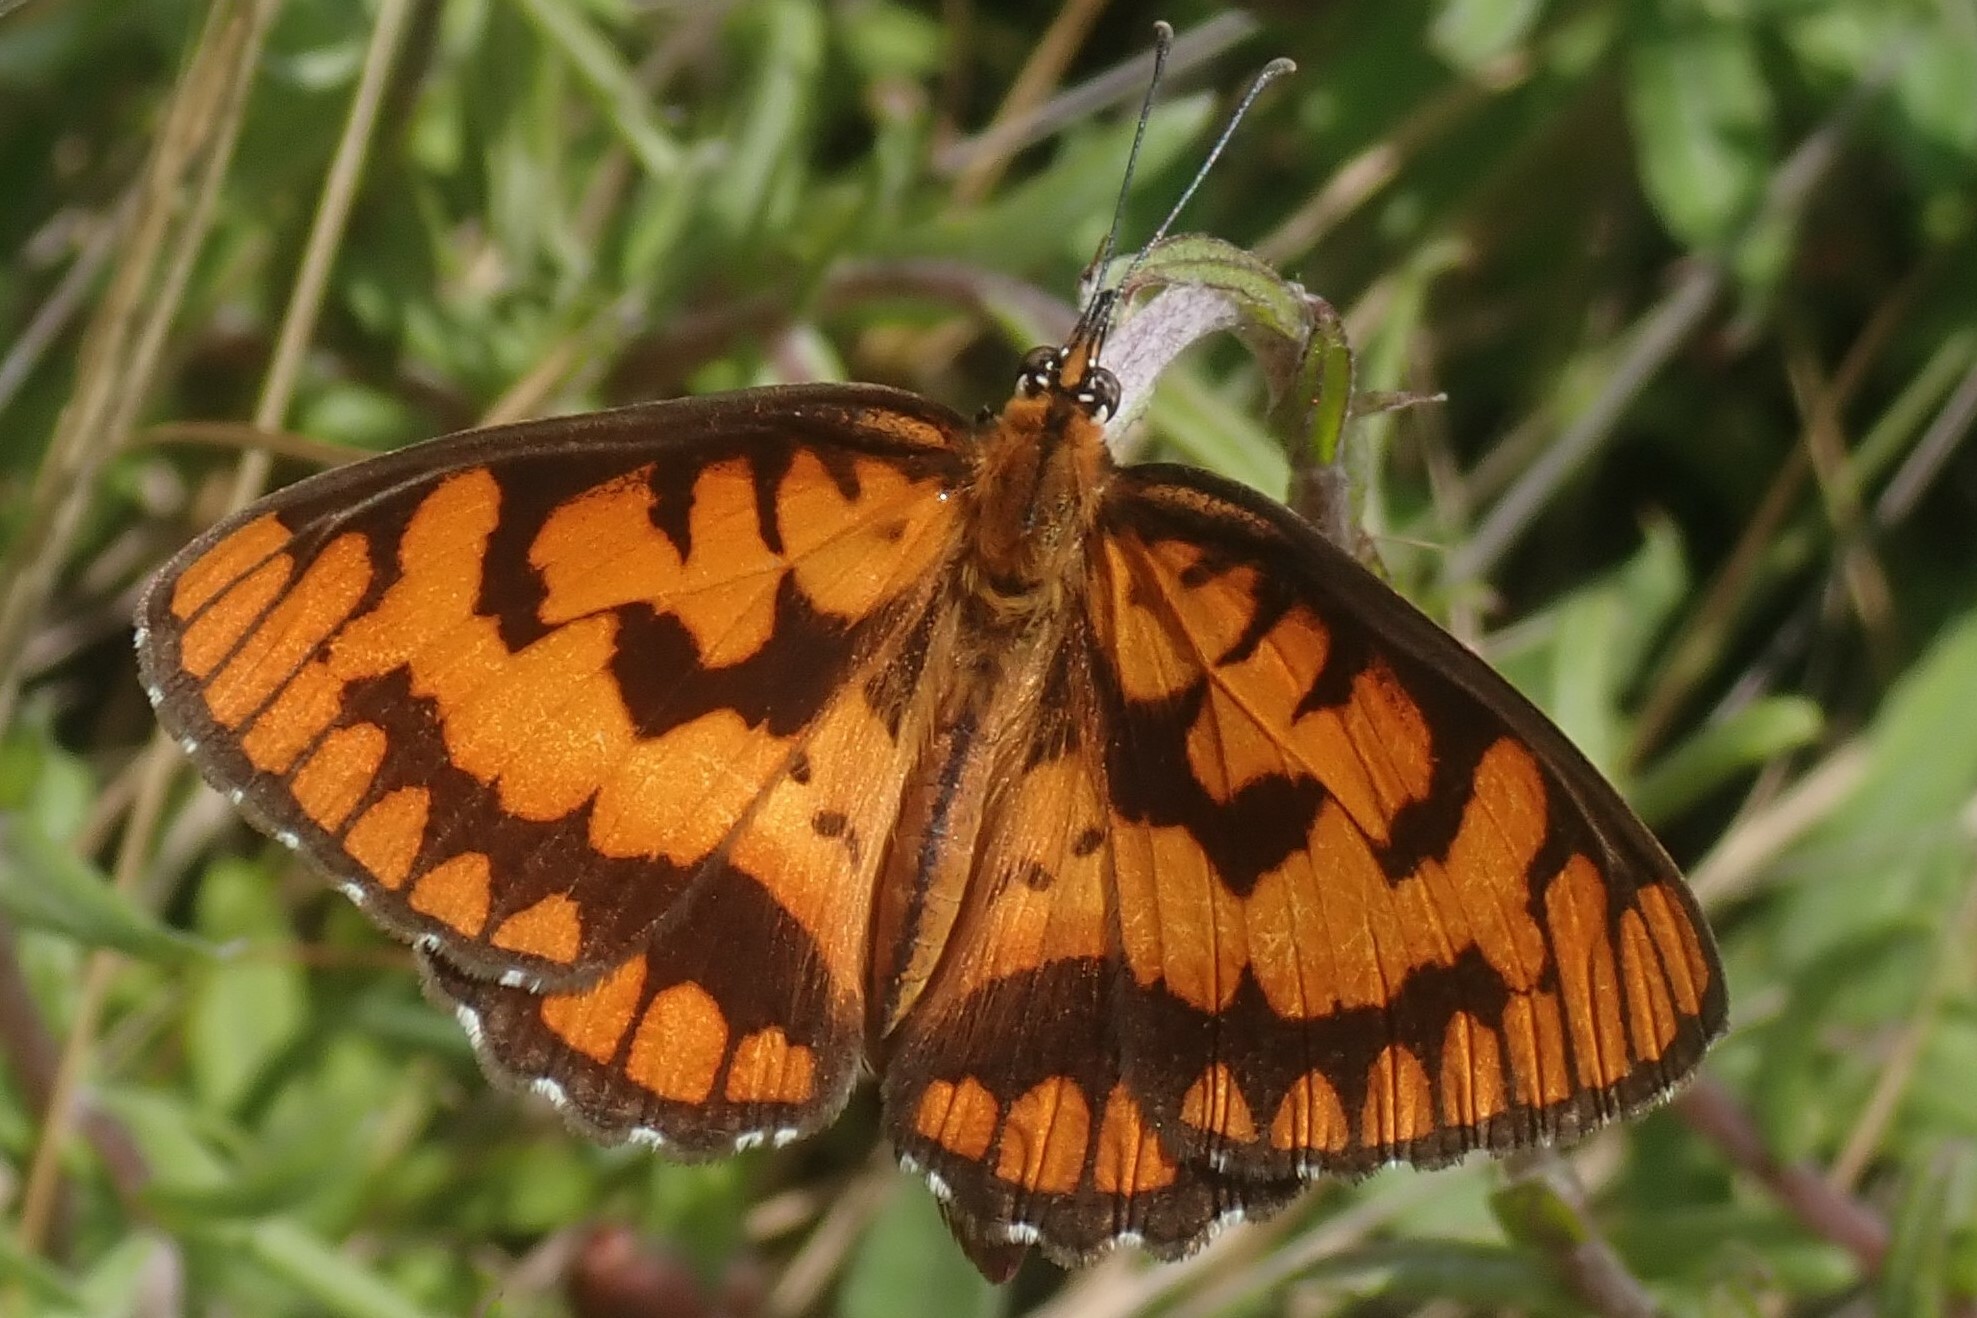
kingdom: Animalia
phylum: Arthropoda
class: Insecta
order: Lepidoptera
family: Nymphalidae
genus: Byblia
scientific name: Byblia ilithyia
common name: Spotted joker
